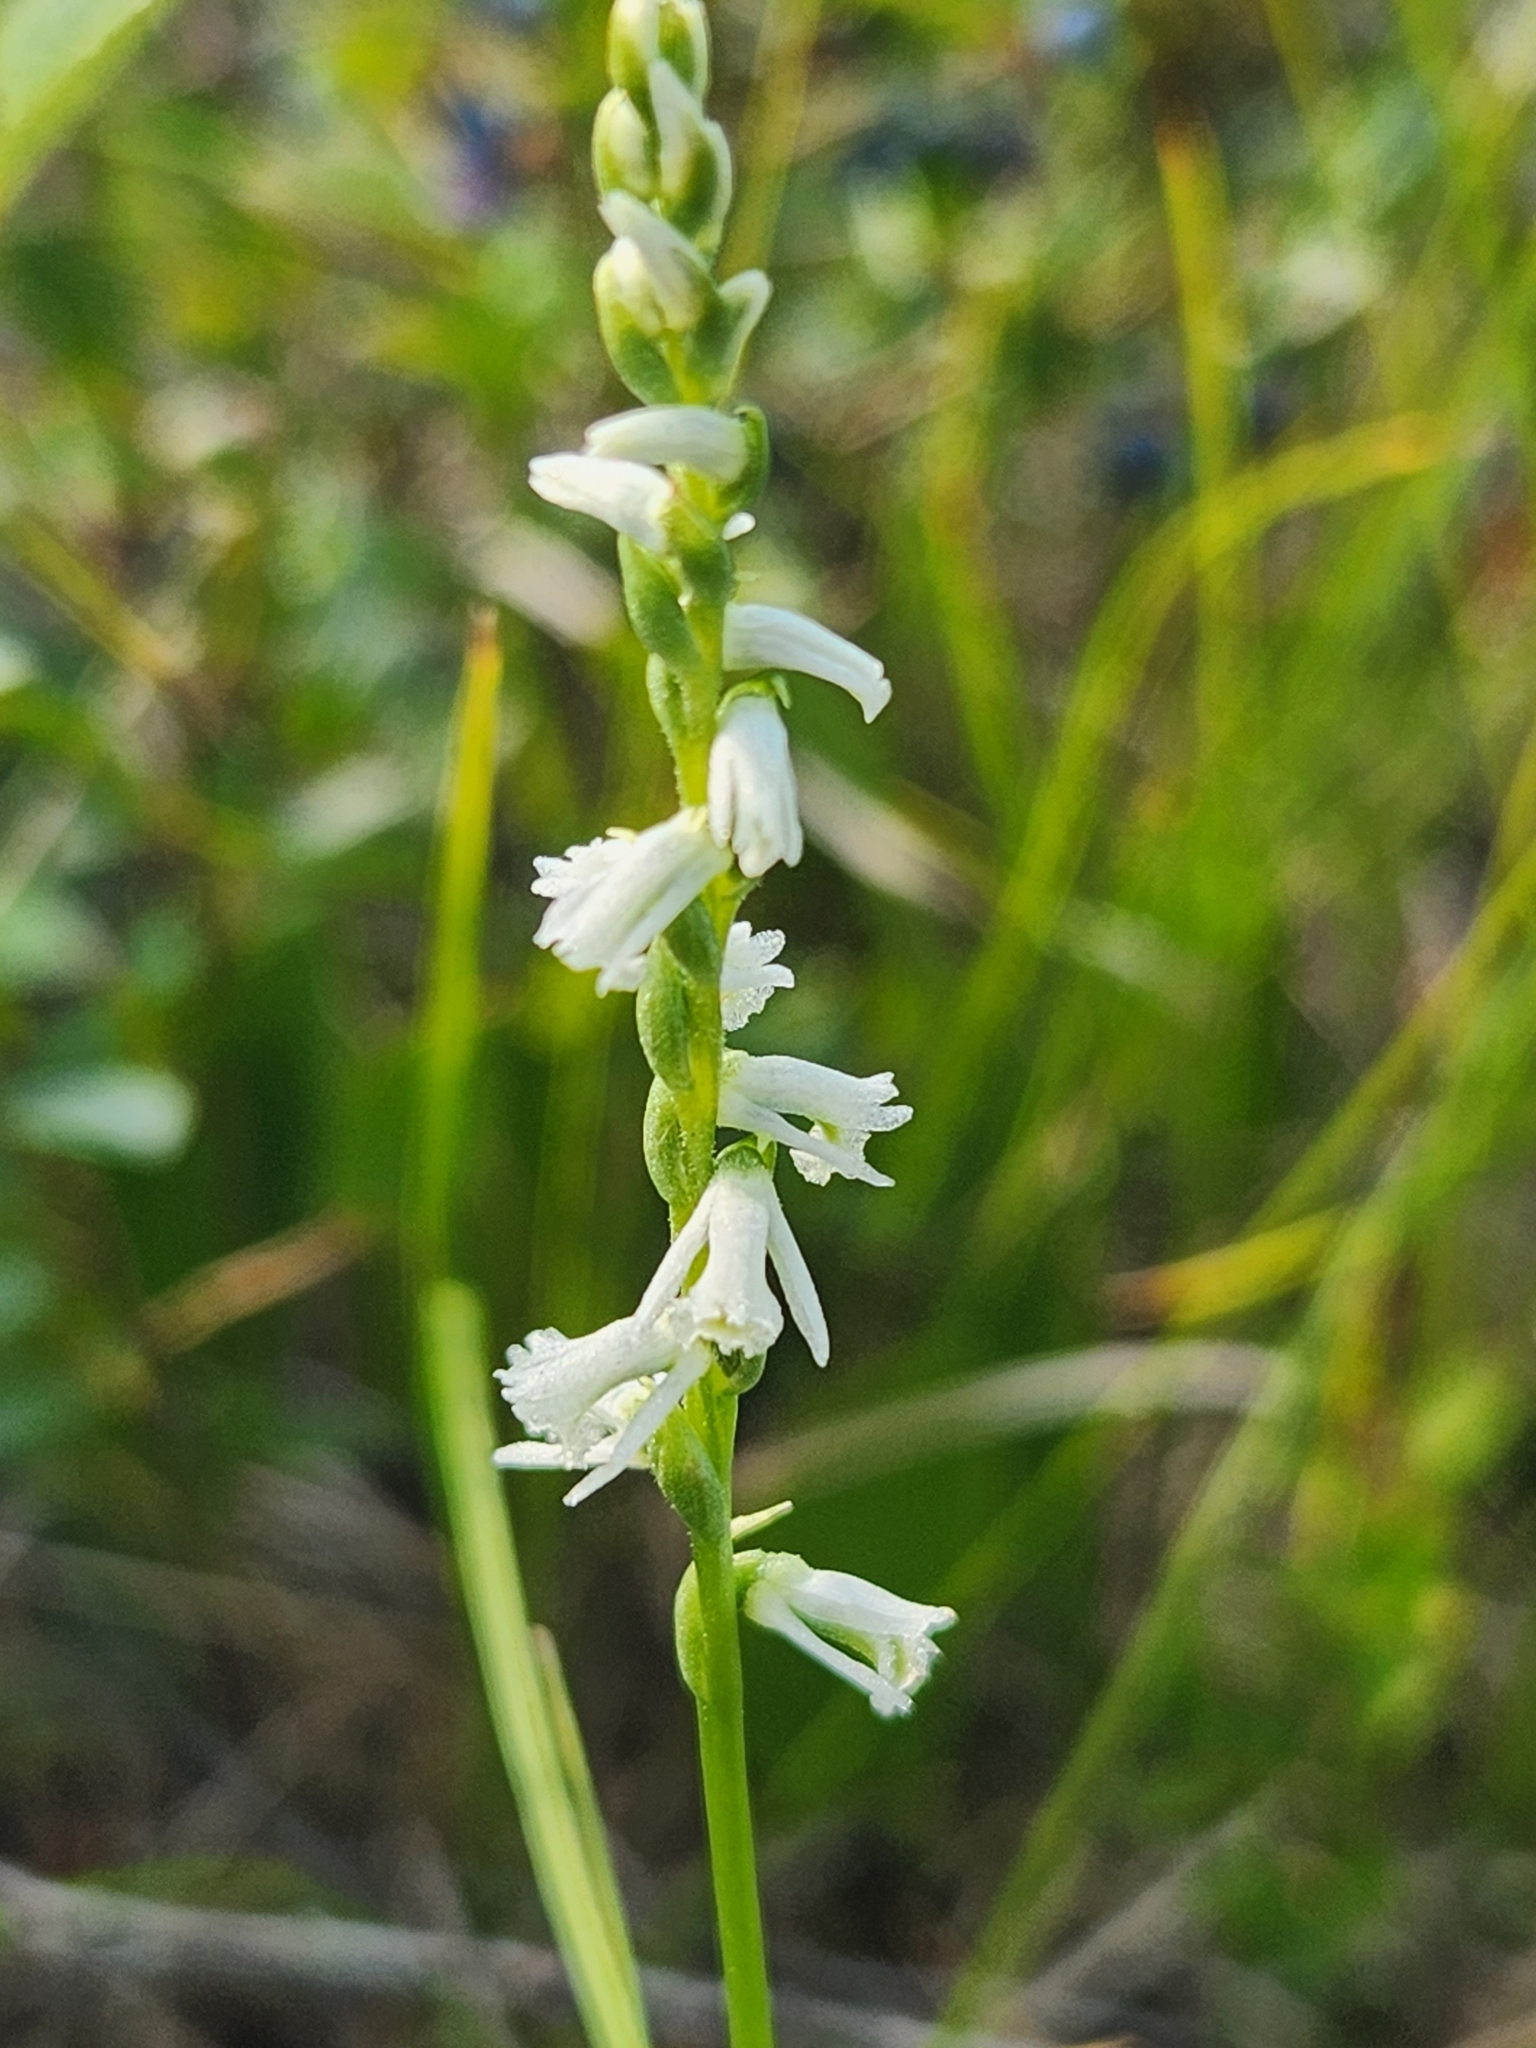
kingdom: Plantae
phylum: Tracheophyta
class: Liliopsida
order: Asparagales
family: Orchidaceae
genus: Spiranthes
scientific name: Spiranthes lacera
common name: Northern slender ladies'-tresses
